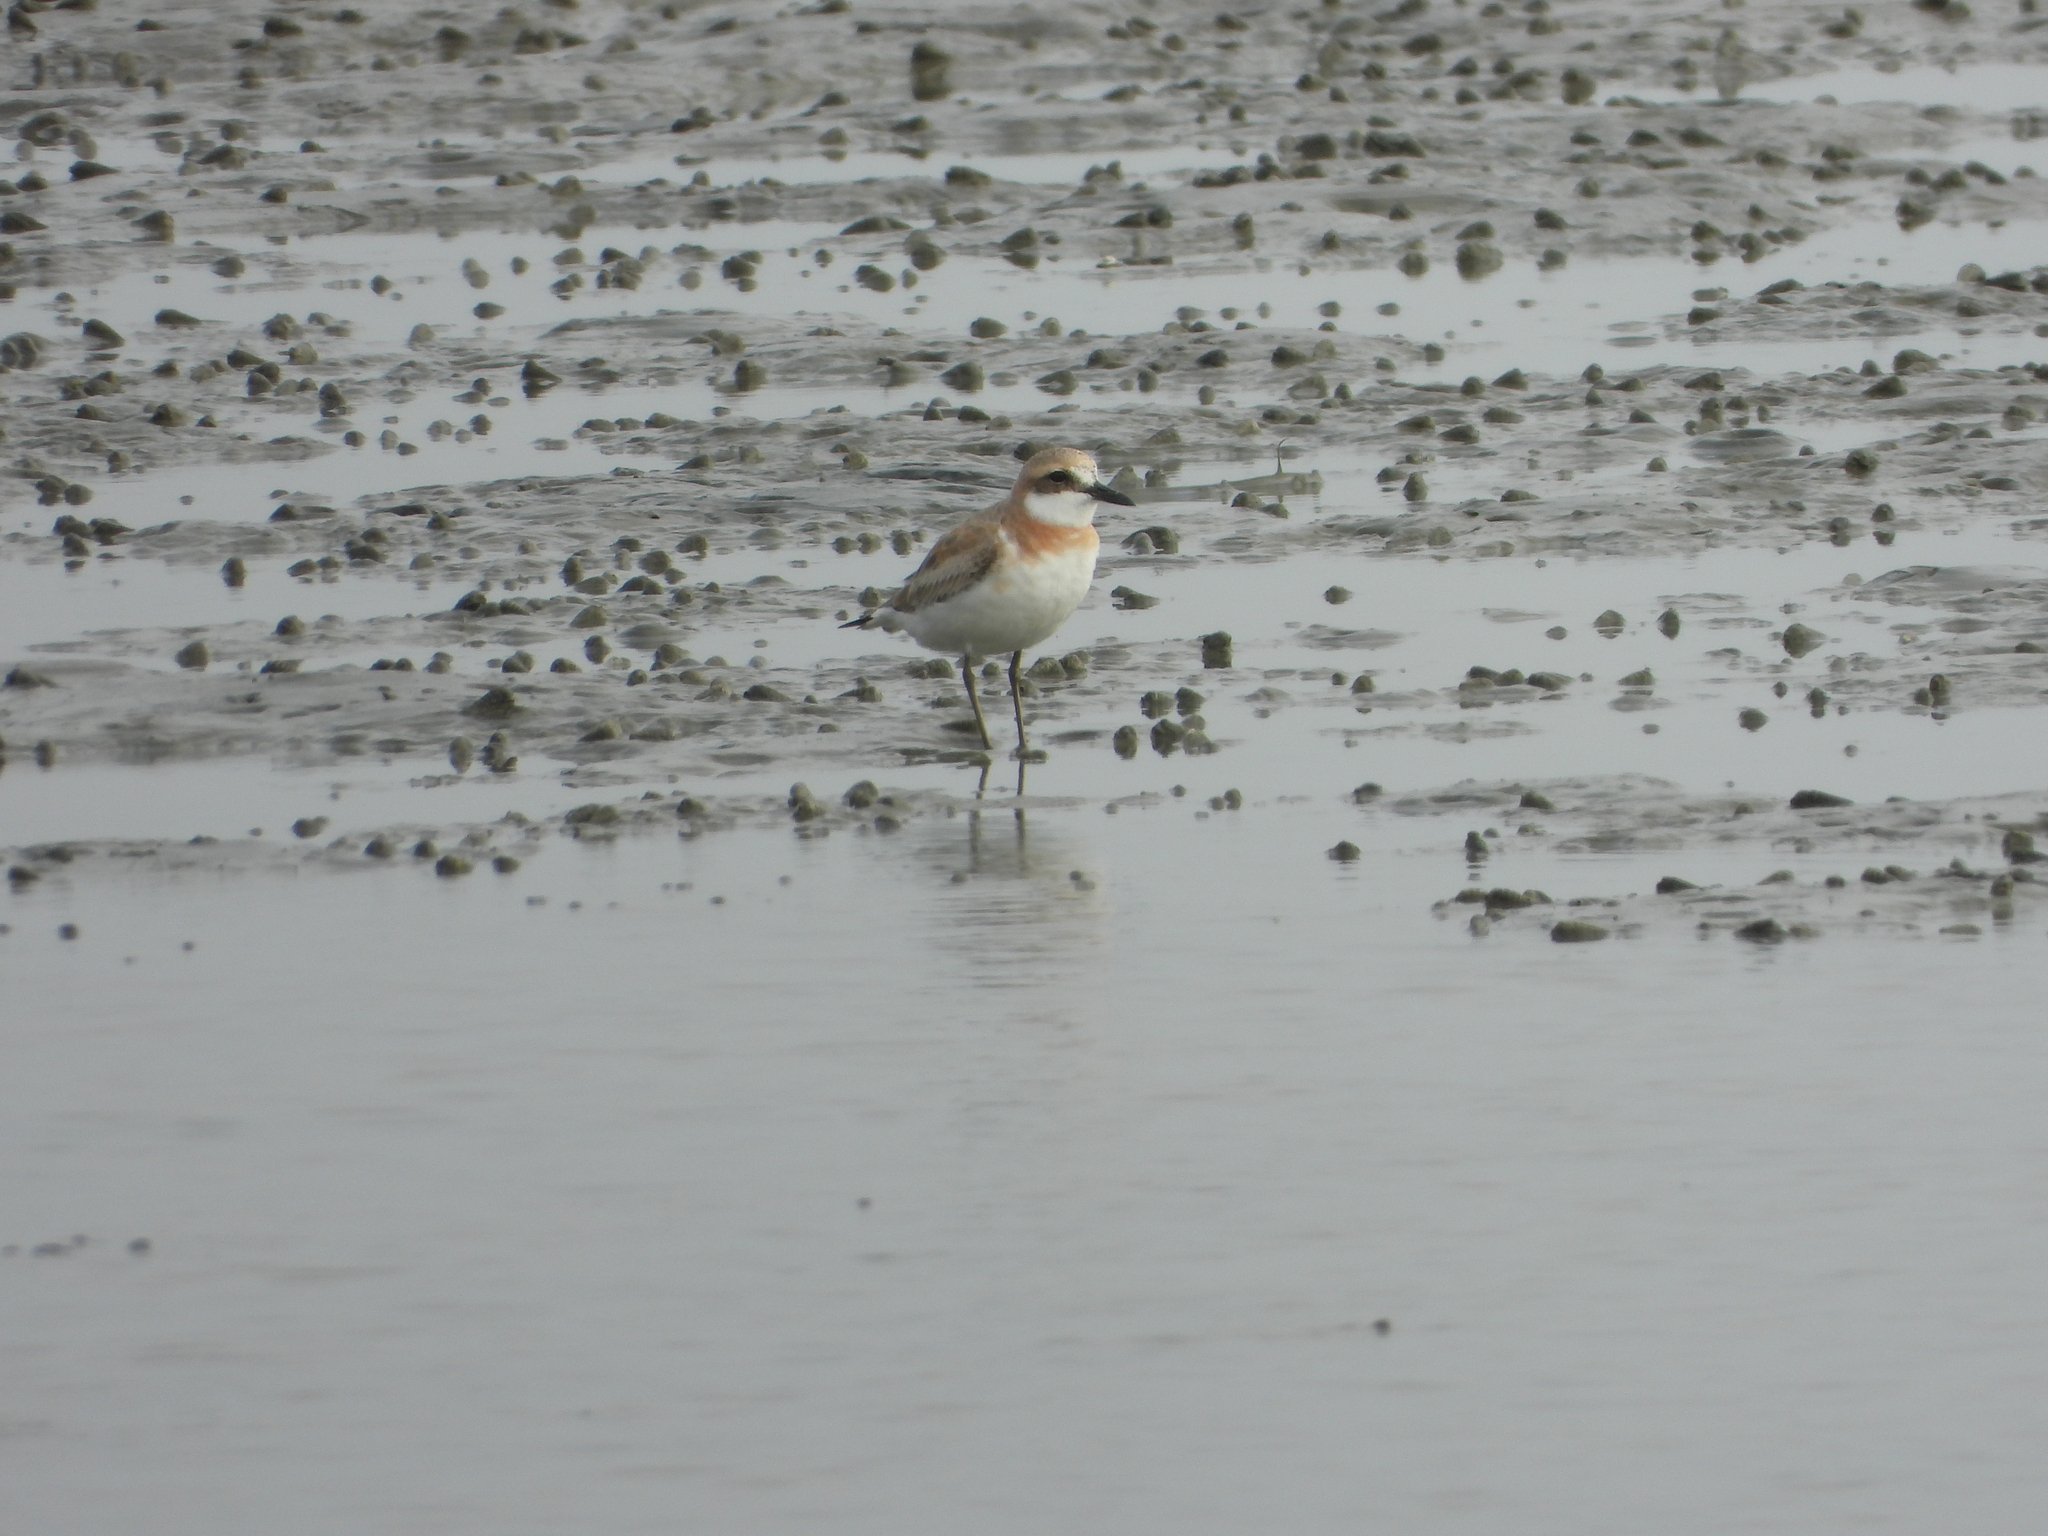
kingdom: Animalia
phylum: Chordata
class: Aves
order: Charadriiformes
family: Charadriidae
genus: Charadrius
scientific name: Charadrius leschenaultii
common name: Greater sand plover
